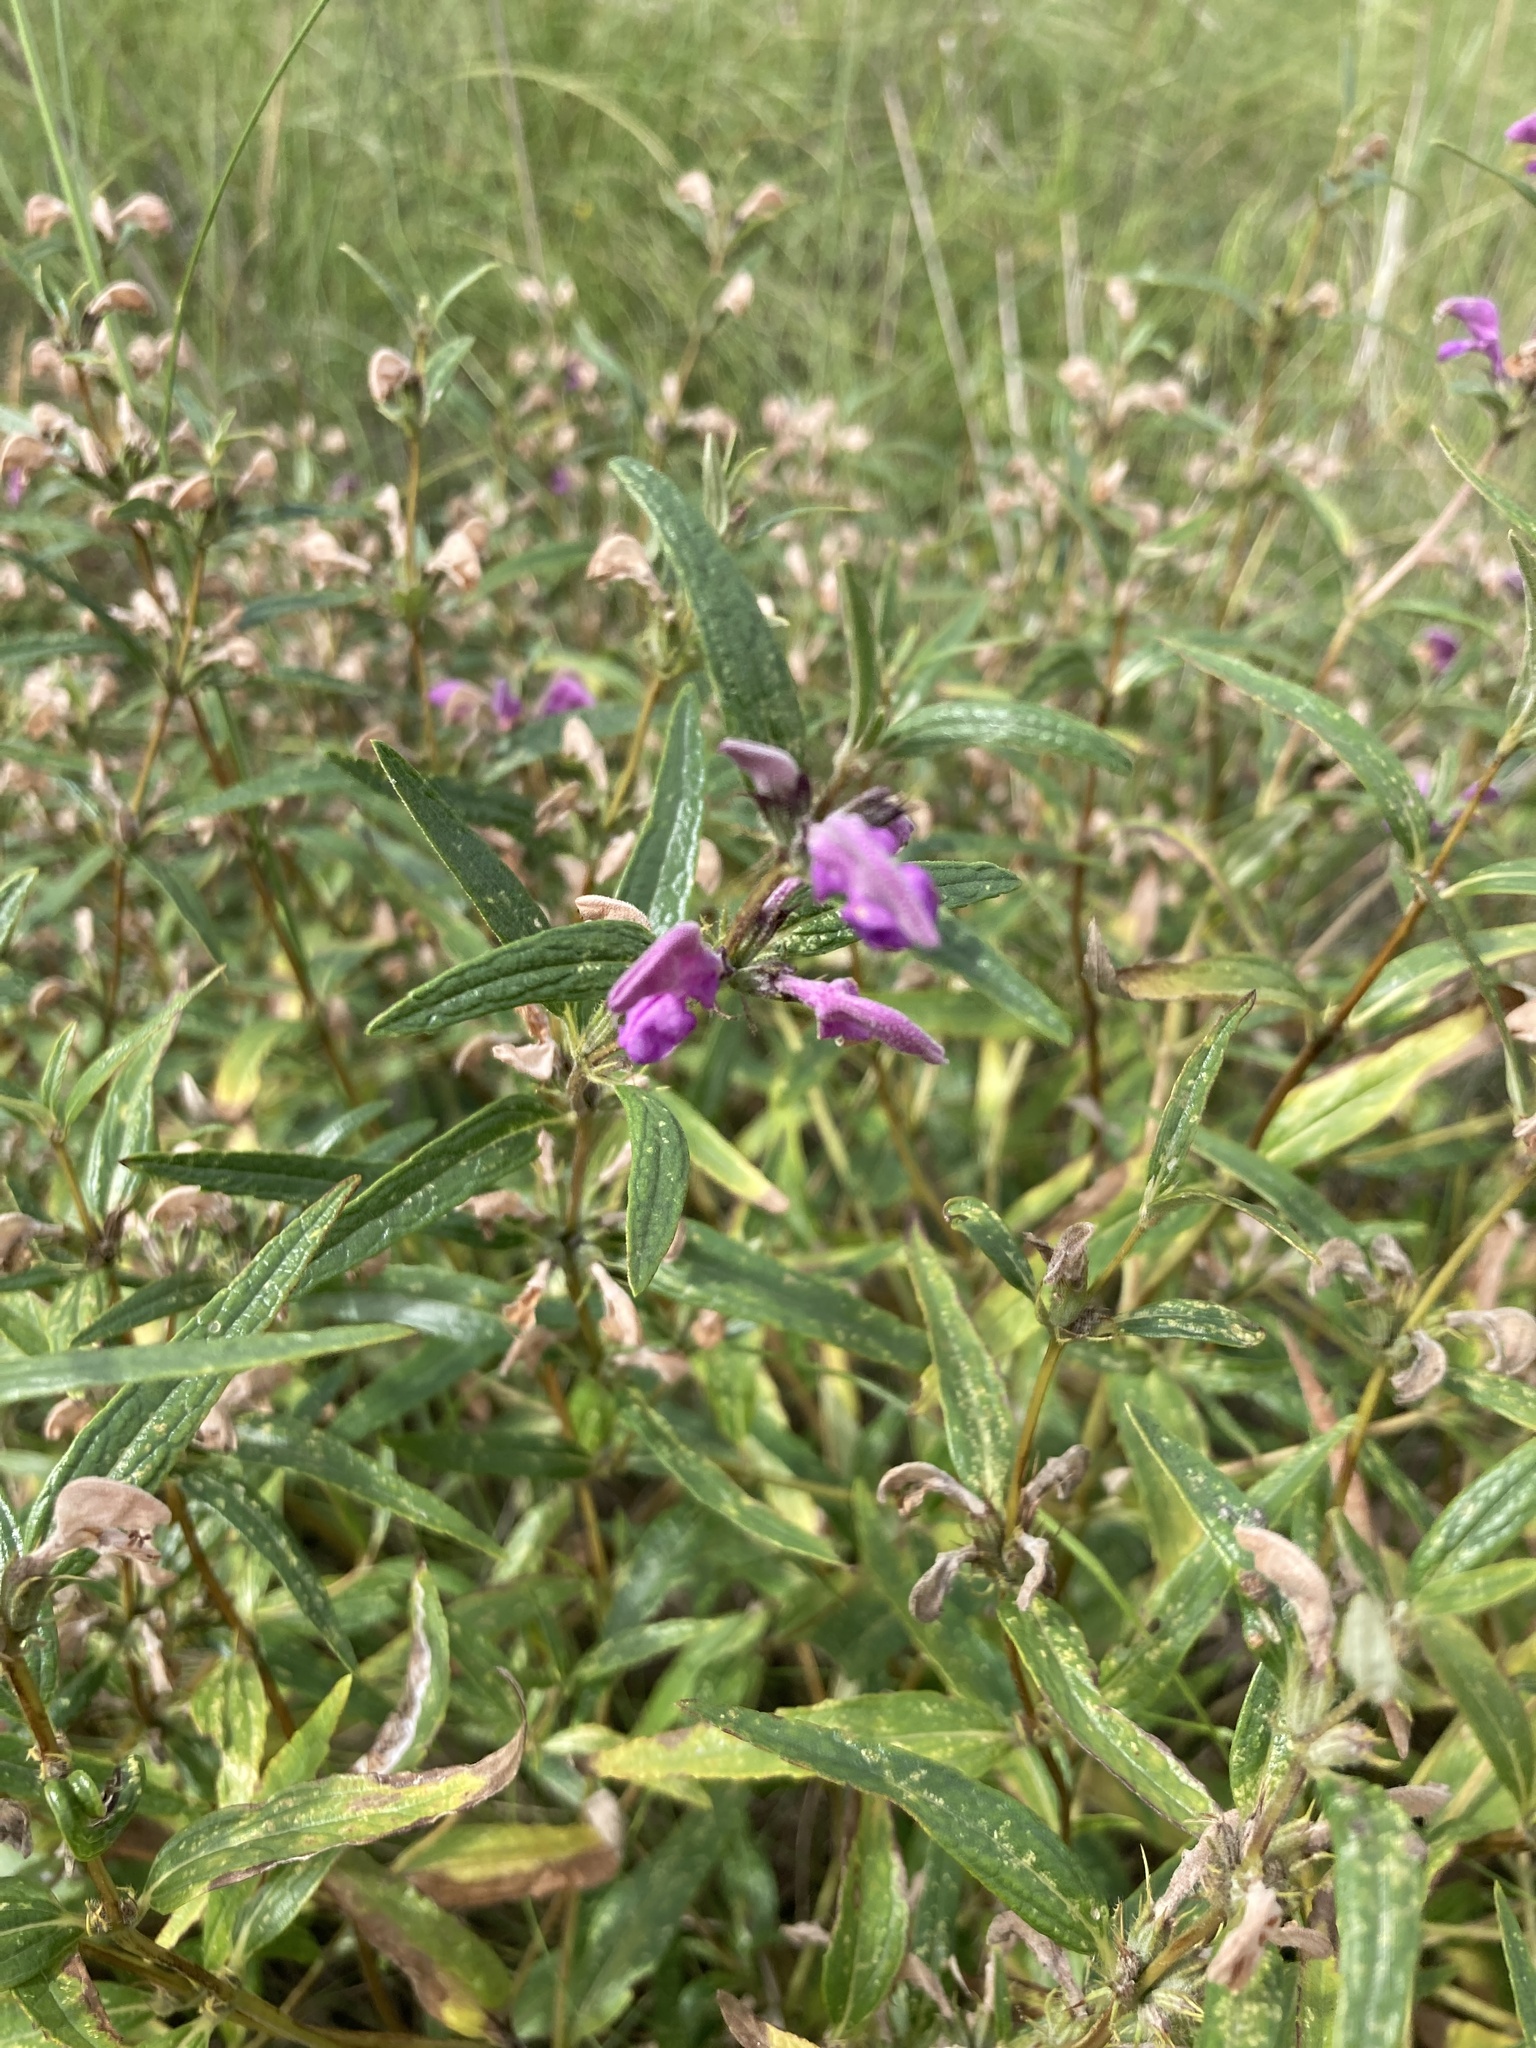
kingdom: Plantae
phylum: Tracheophyta
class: Magnoliopsida
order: Lamiales
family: Lamiaceae
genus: Phlomis
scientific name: Phlomis herba-venti
